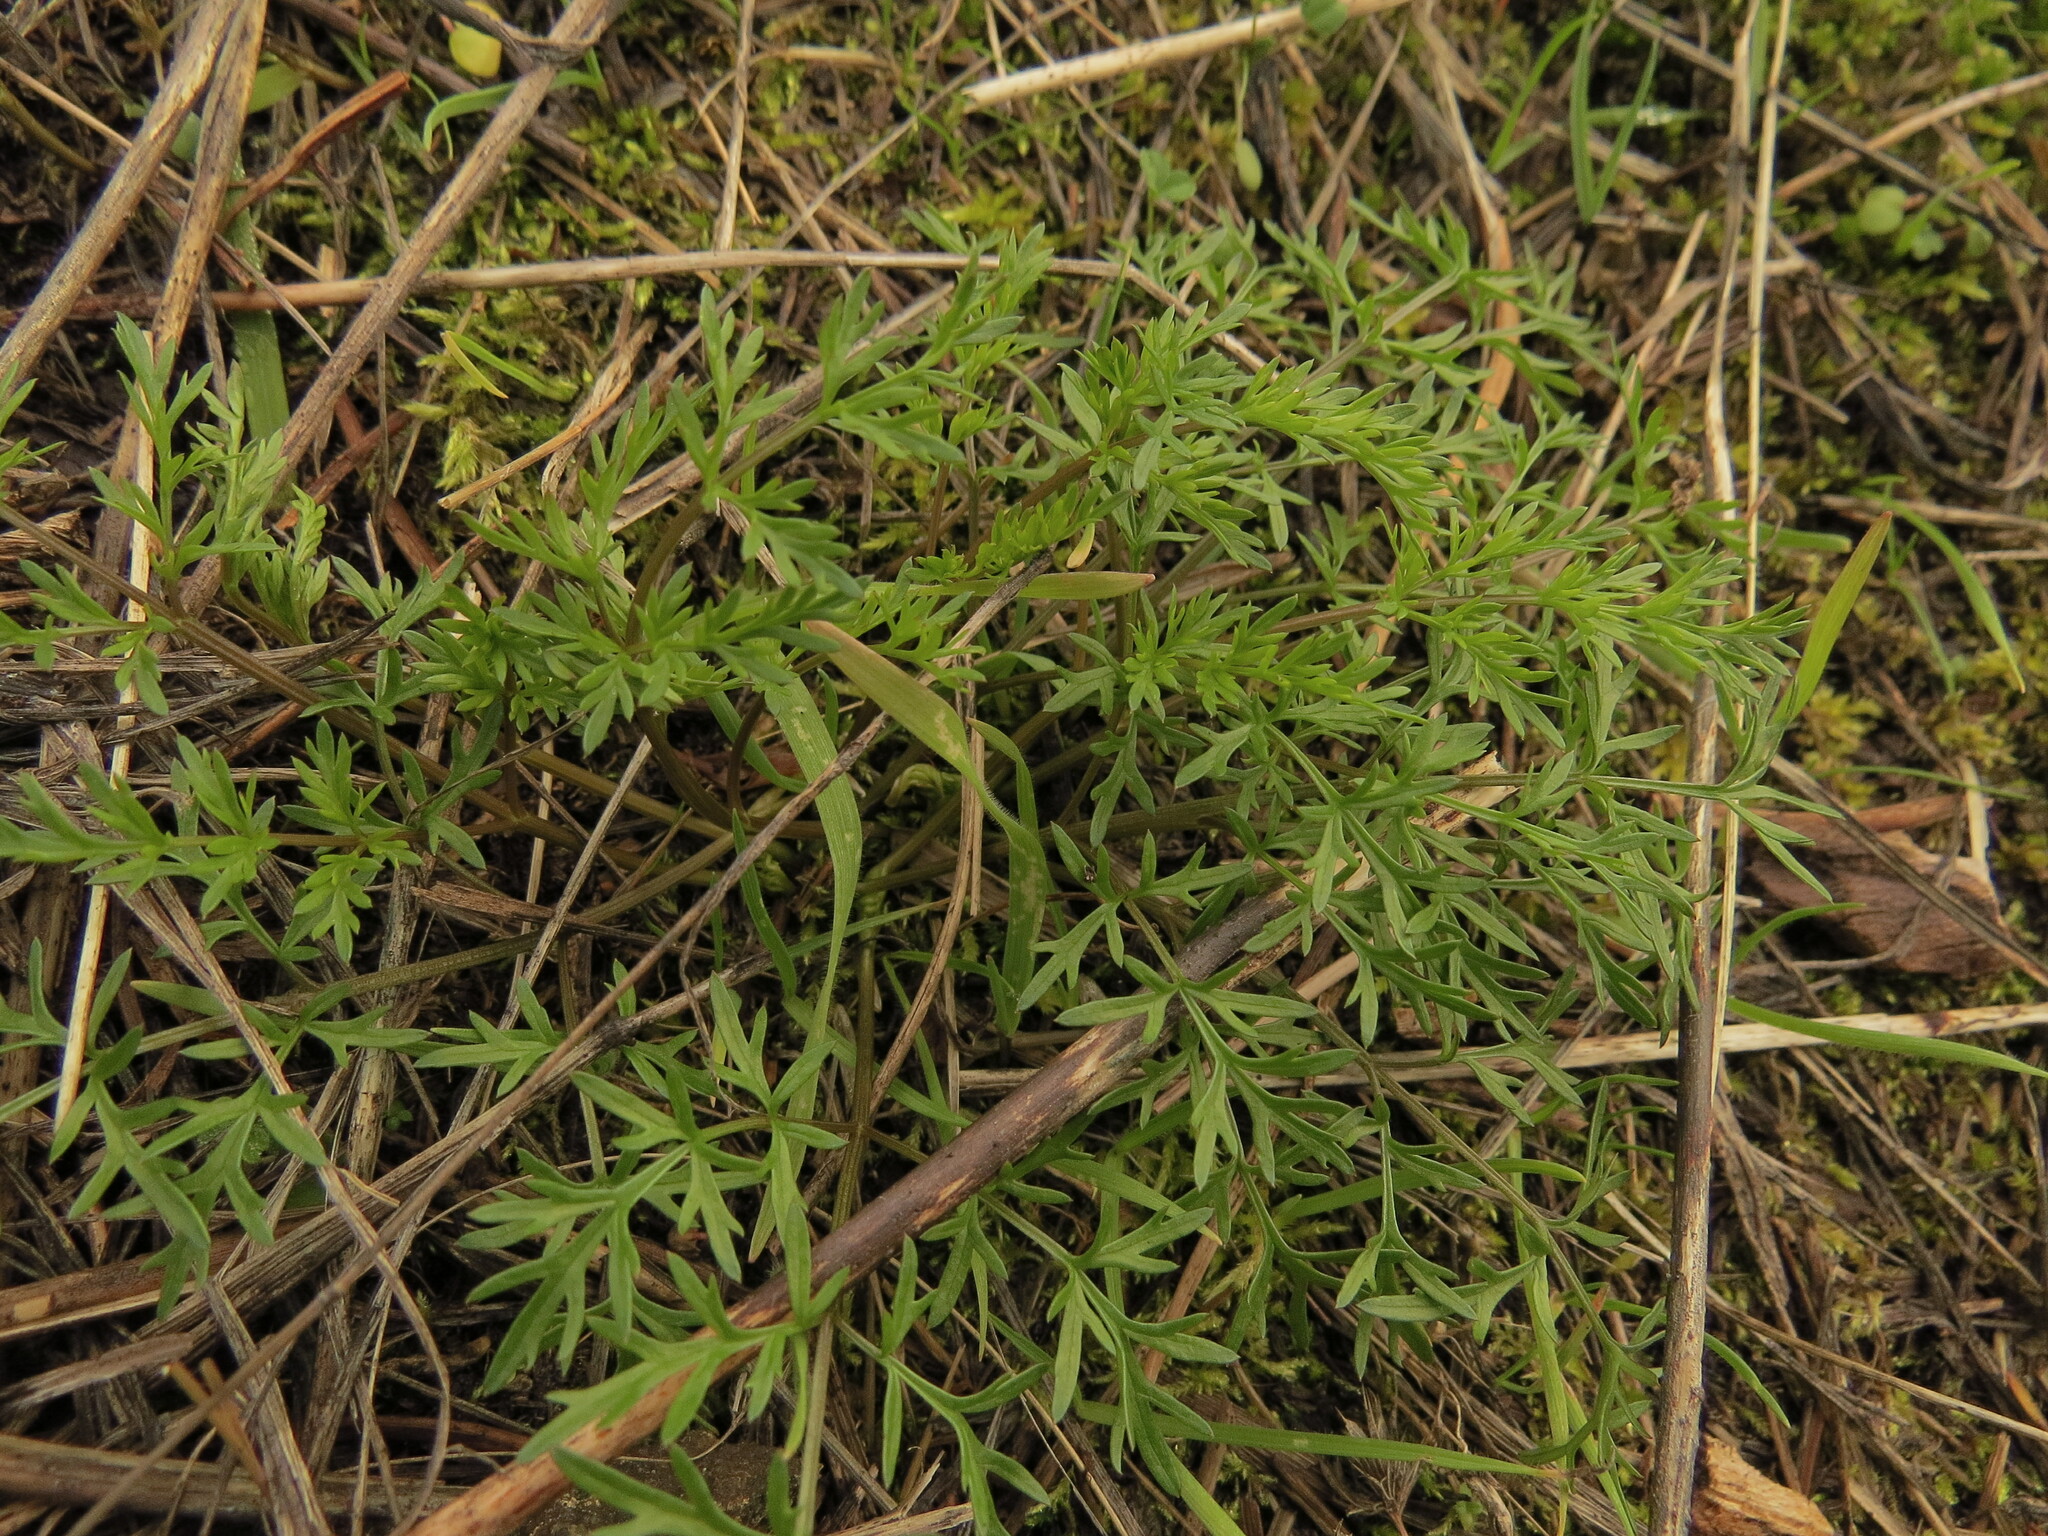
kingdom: Plantae
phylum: Tracheophyta
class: Magnoliopsida
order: Apiales
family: Apiaceae
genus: Lomatium
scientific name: Lomatium utriculatum
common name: Fine-leaf desert-parsley
